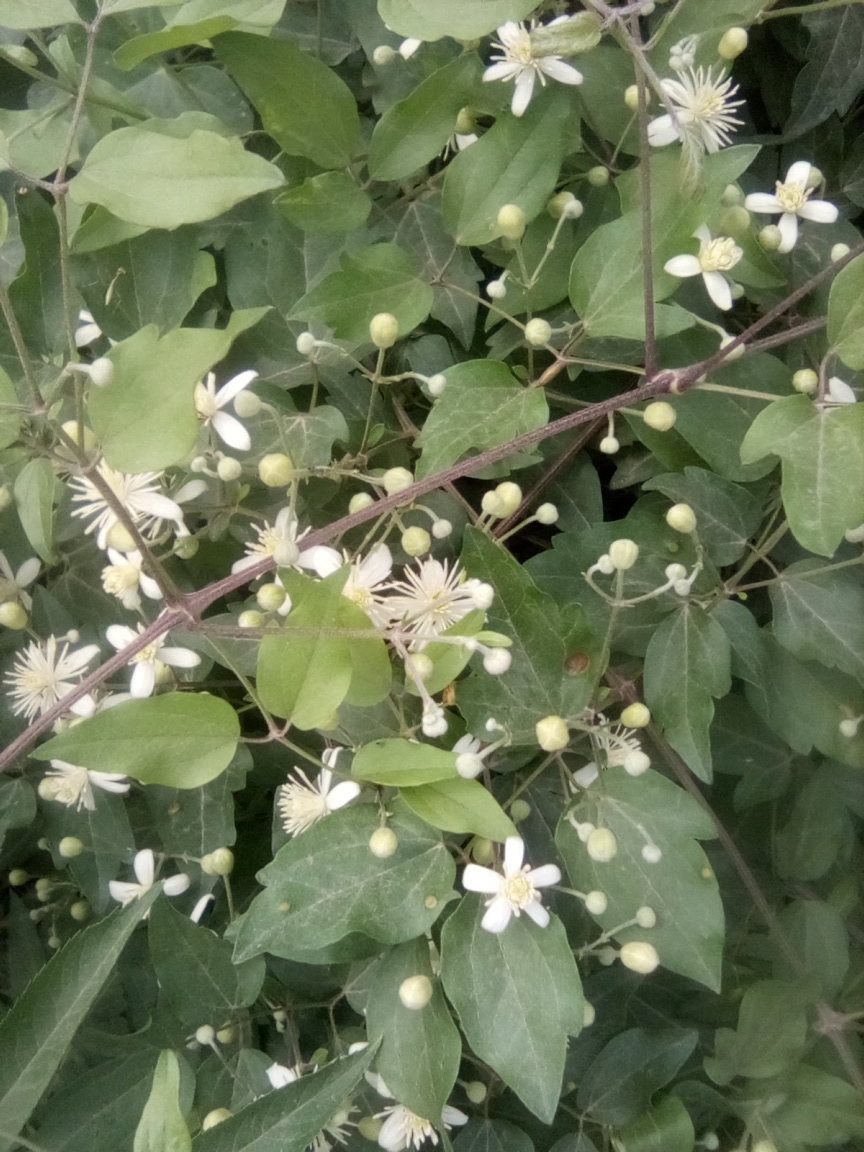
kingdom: Plantae
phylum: Tracheophyta
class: Magnoliopsida
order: Ranunculales
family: Ranunculaceae
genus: Clematis
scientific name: Clematis vitalba
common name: Evergreen clematis
